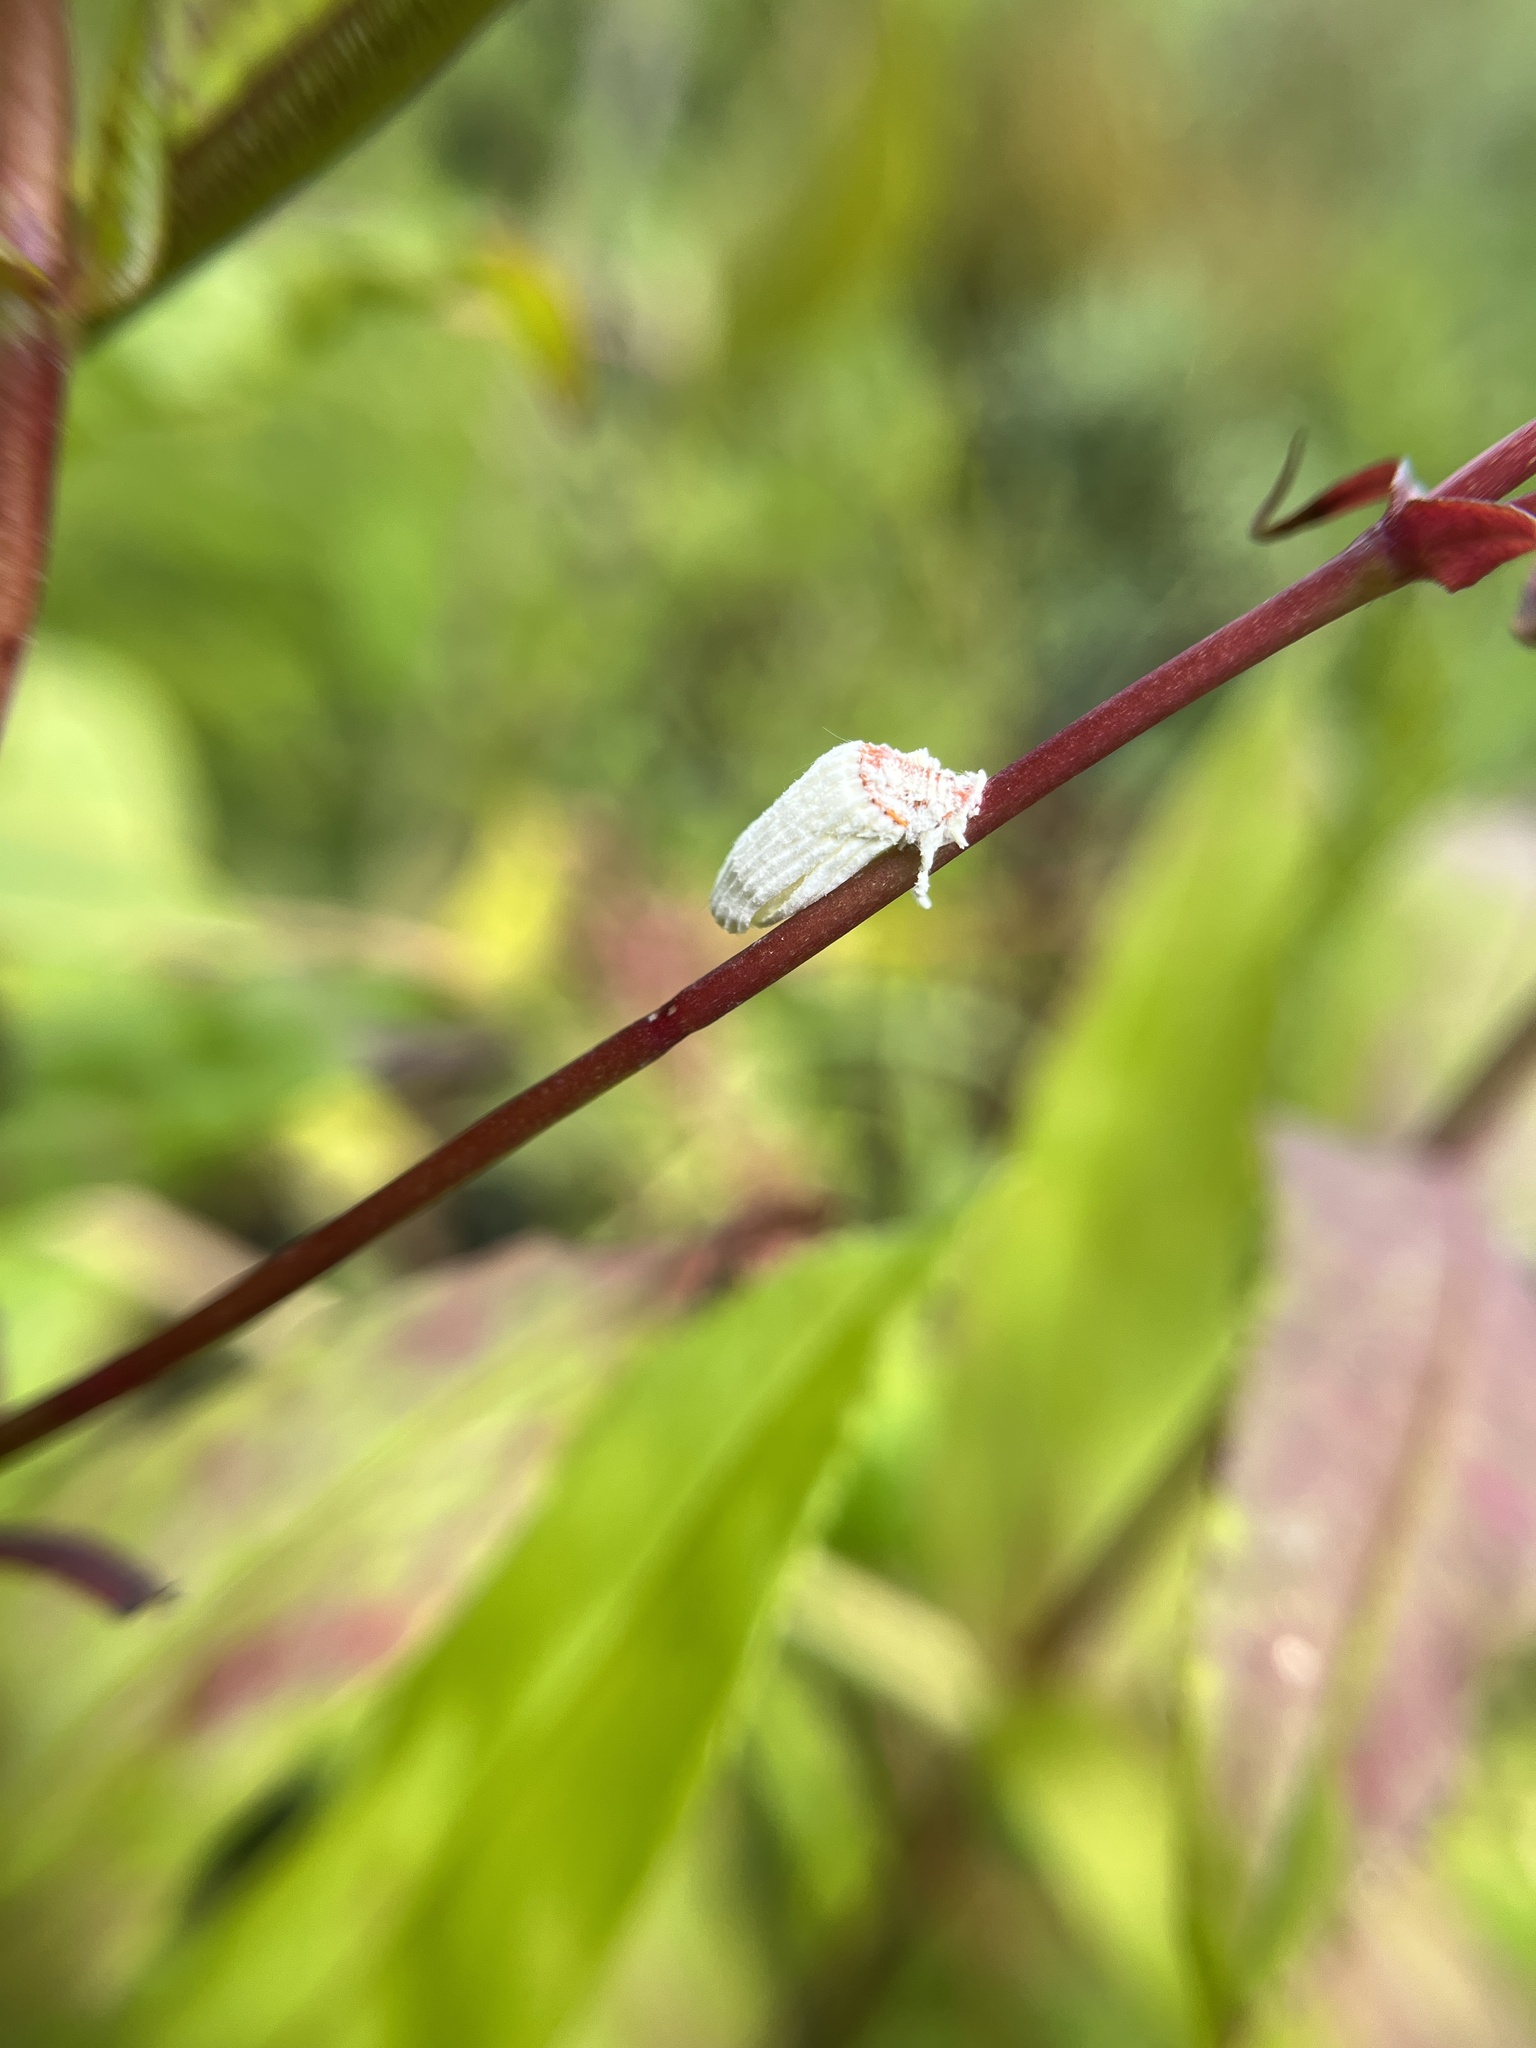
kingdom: Animalia
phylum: Arthropoda
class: Insecta
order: Hemiptera
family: Margarodidae
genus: Icerya
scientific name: Icerya purchasi
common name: Cottony cushion scale
